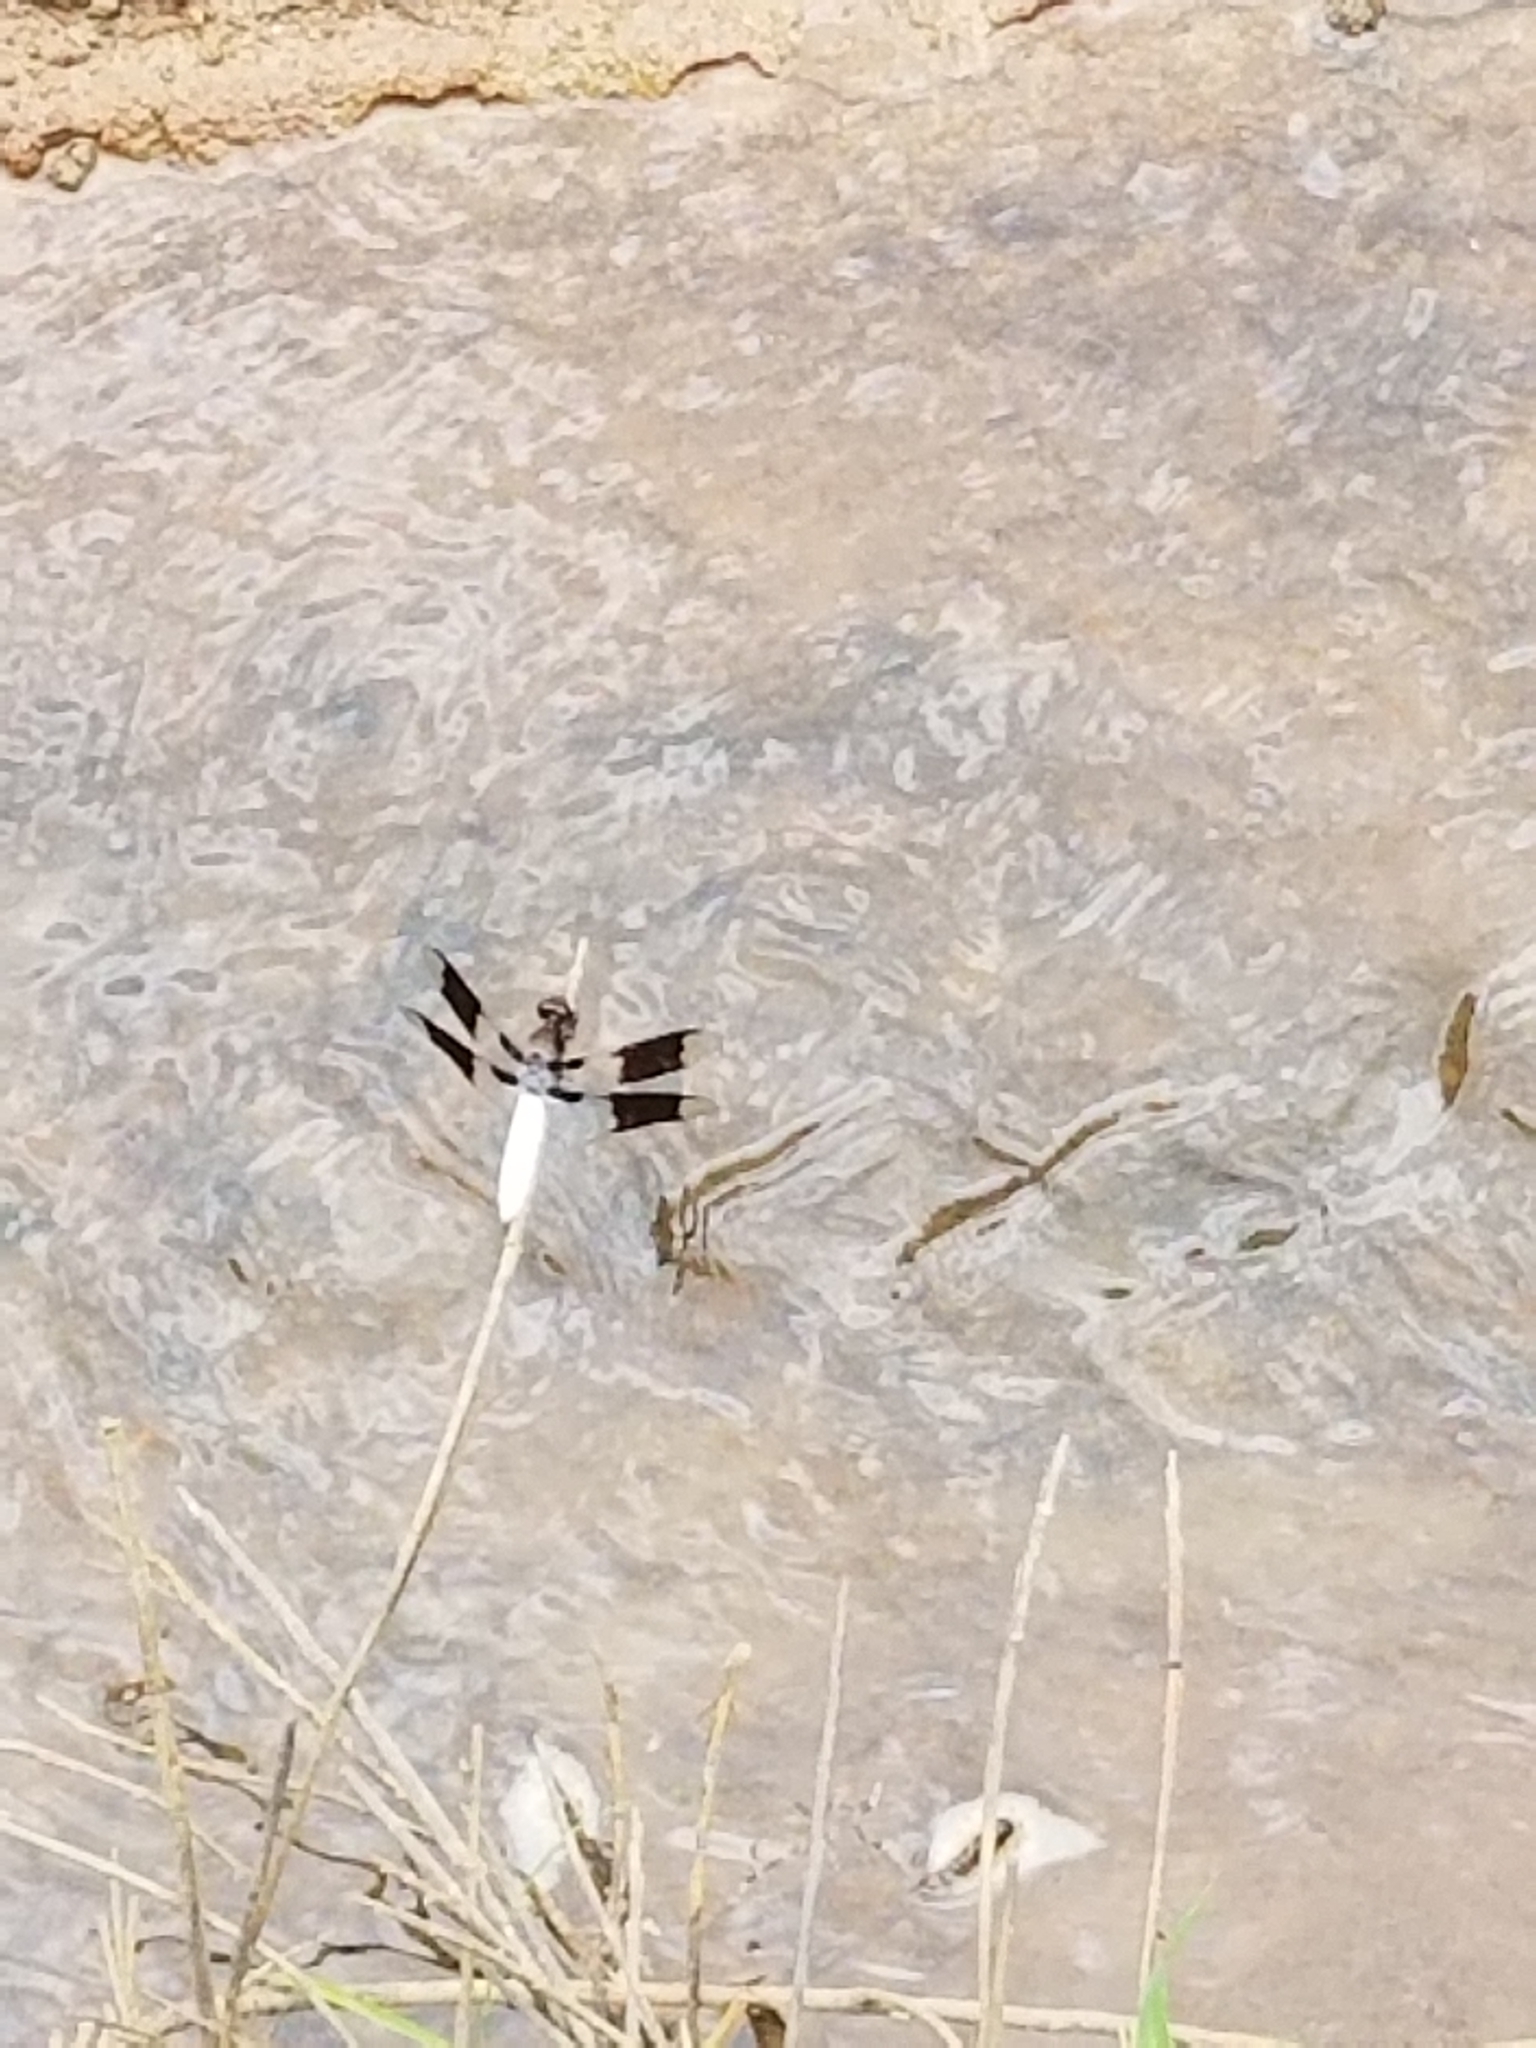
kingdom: Animalia
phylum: Arthropoda
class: Insecta
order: Odonata
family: Libellulidae
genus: Plathemis
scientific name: Plathemis lydia
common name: Common whitetail
